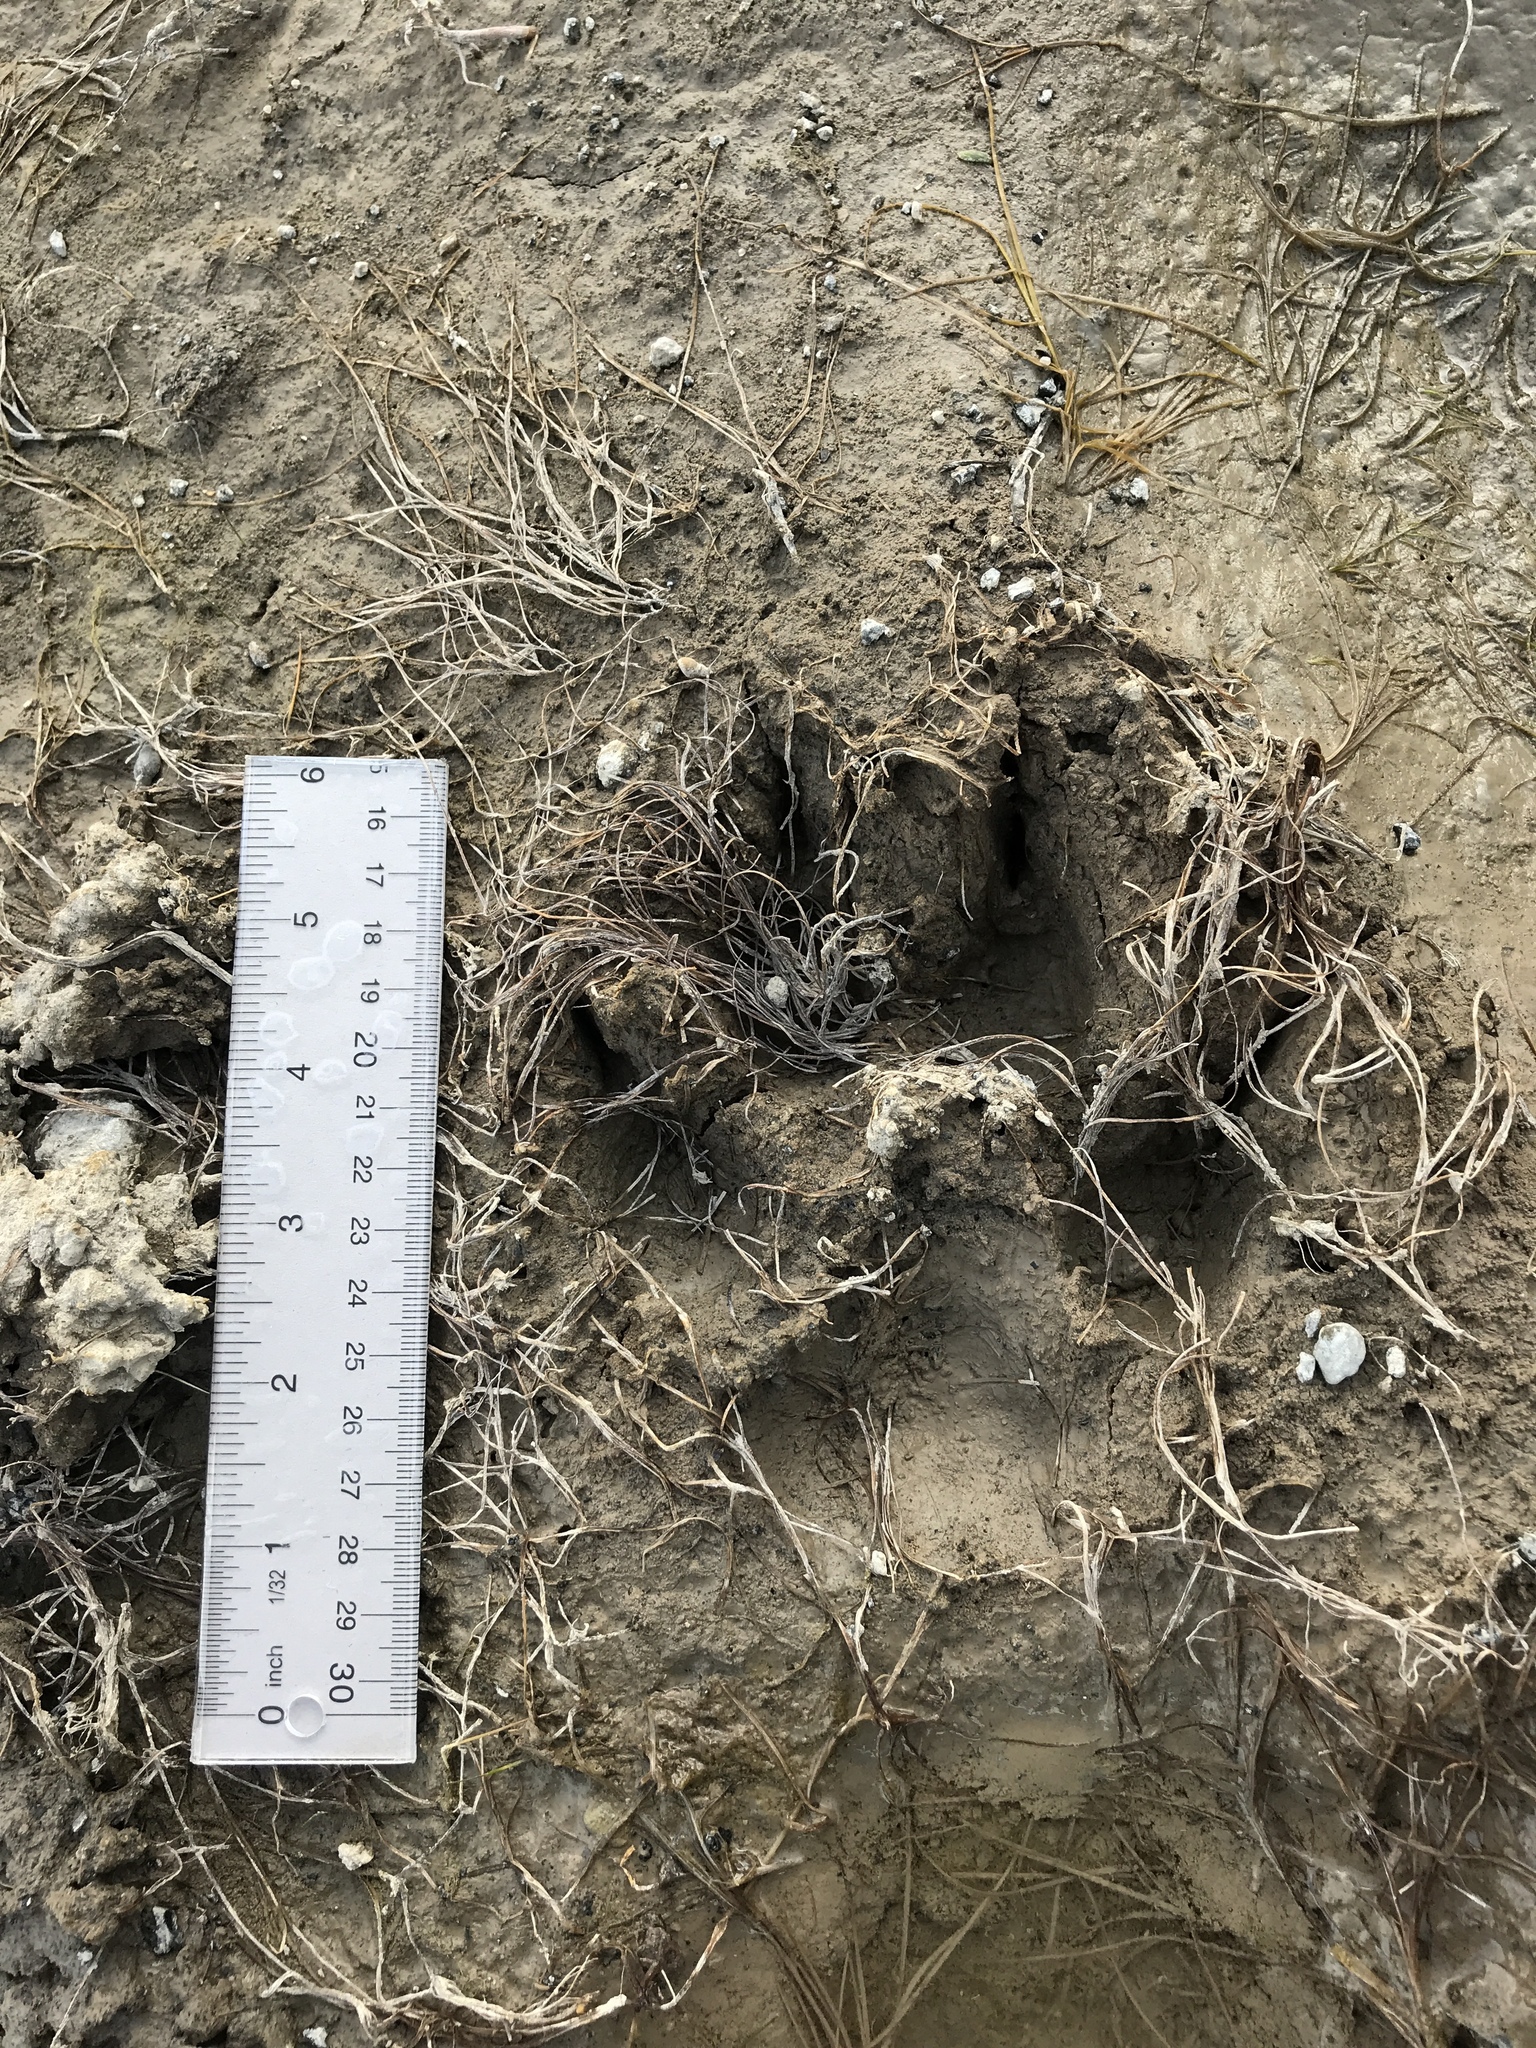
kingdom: Animalia
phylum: Chordata
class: Mammalia
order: Carnivora
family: Canidae
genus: Canis
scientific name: Canis lupus
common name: Gray wolf
